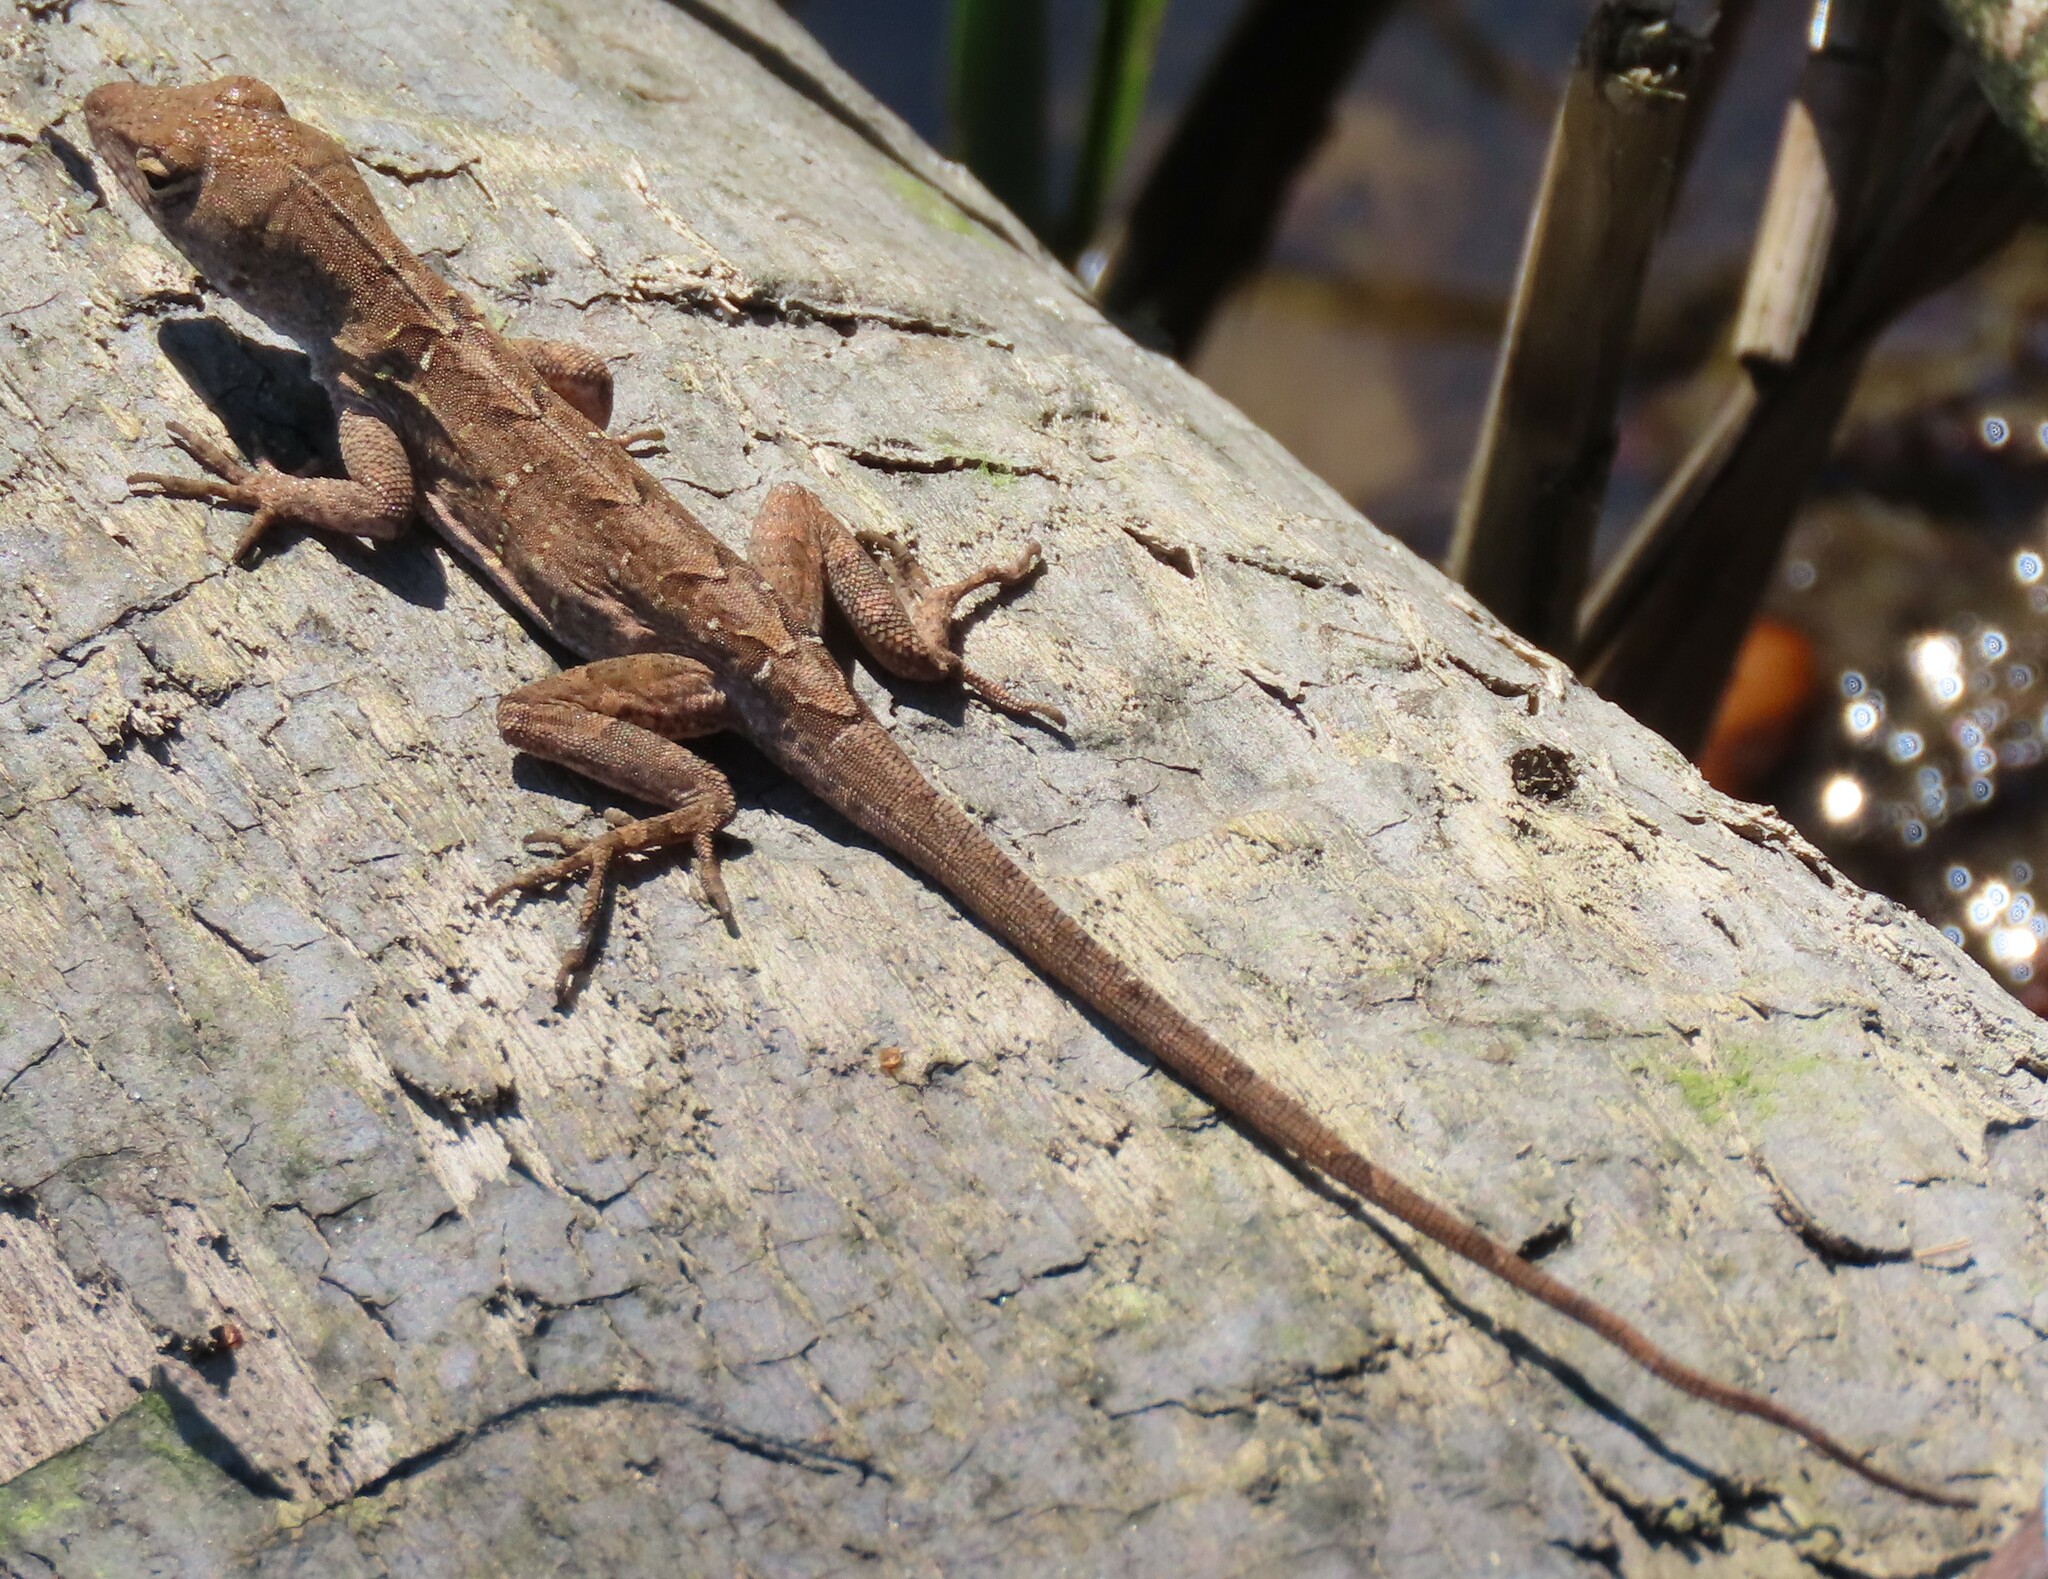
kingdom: Animalia
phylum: Chordata
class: Squamata
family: Dactyloidae
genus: Anolis
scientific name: Anolis sagrei
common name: Brown anole
